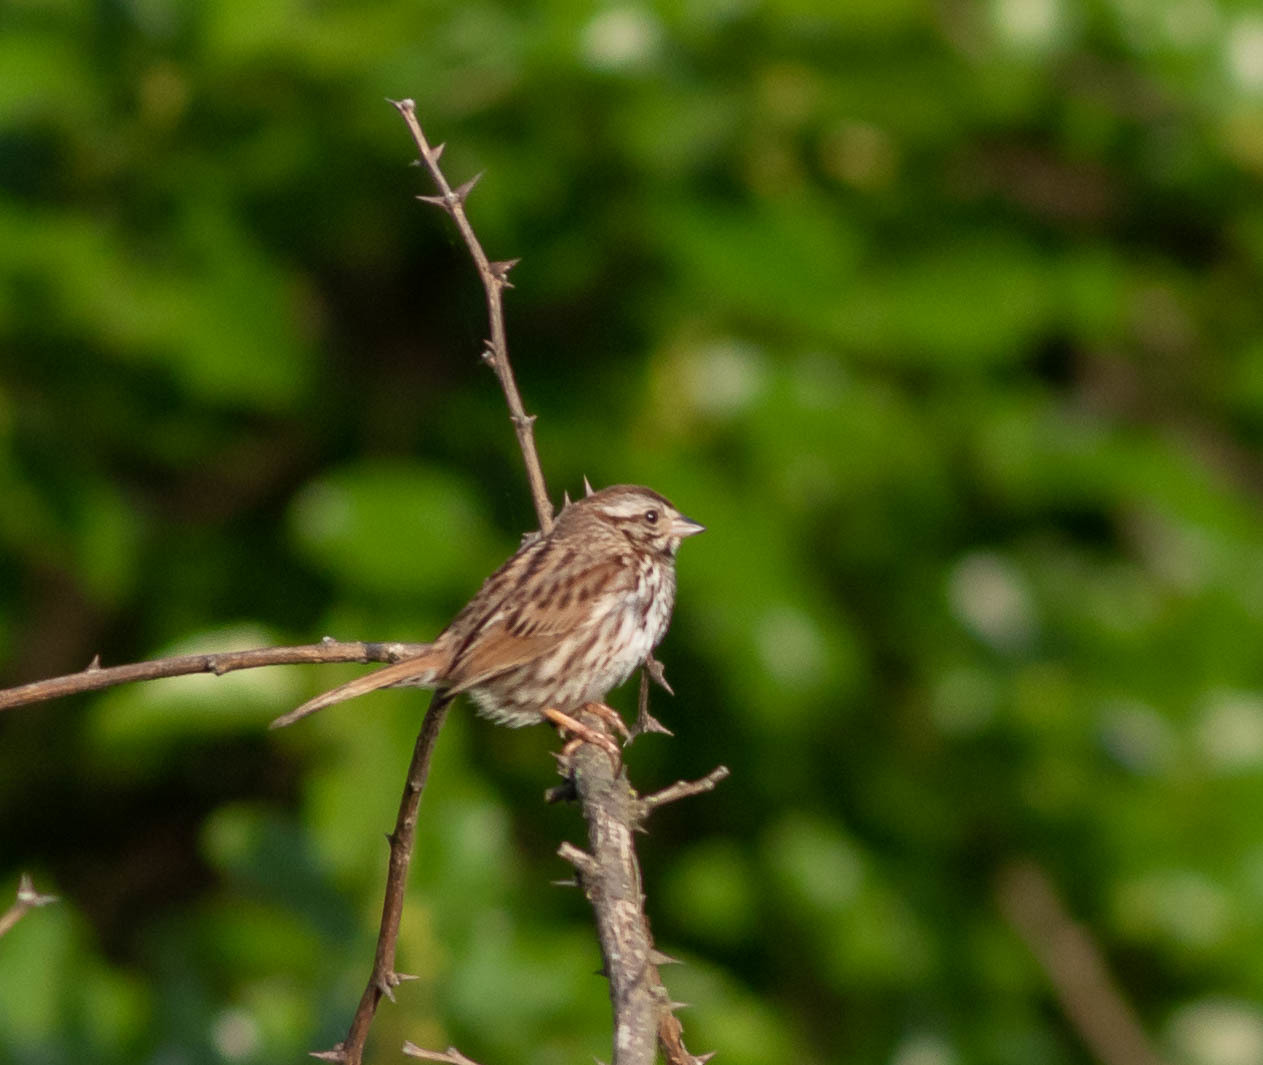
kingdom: Animalia
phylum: Chordata
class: Aves
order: Passeriformes
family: Passerellidae
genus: Melospiza
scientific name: Melospiza melodia
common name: Song sparrow
